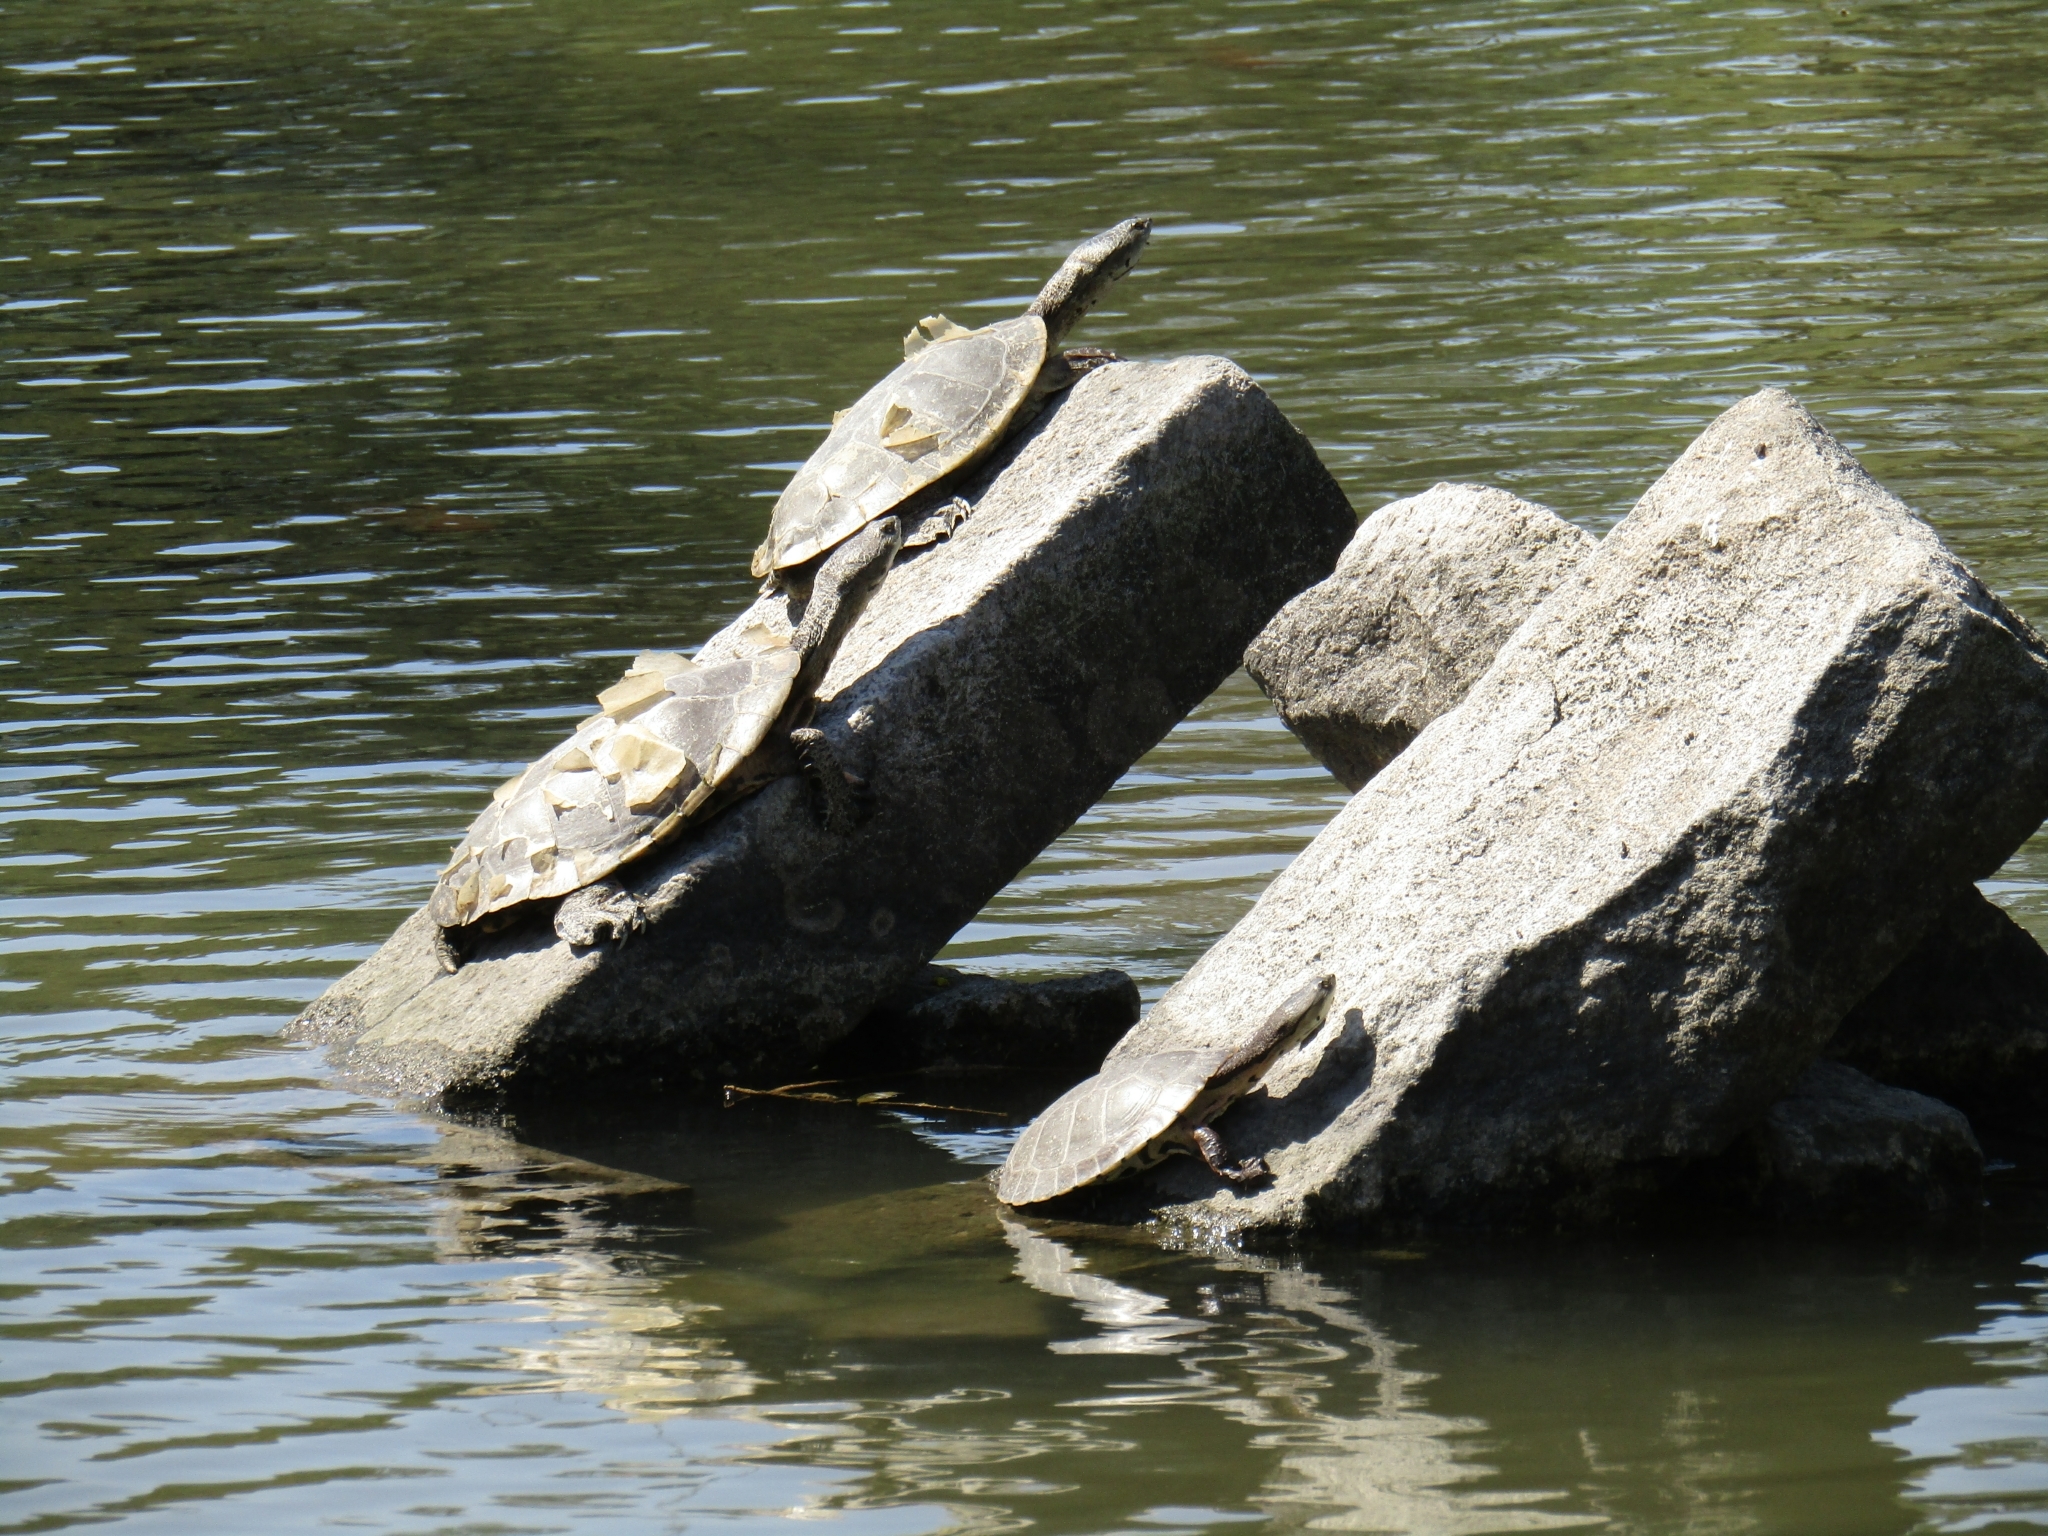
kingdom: Animalia
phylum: Chordata
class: Testudines
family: Chelidae
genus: Phrynops
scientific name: Phrynops hilarii
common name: Side-necked turtle of saint hillaire
